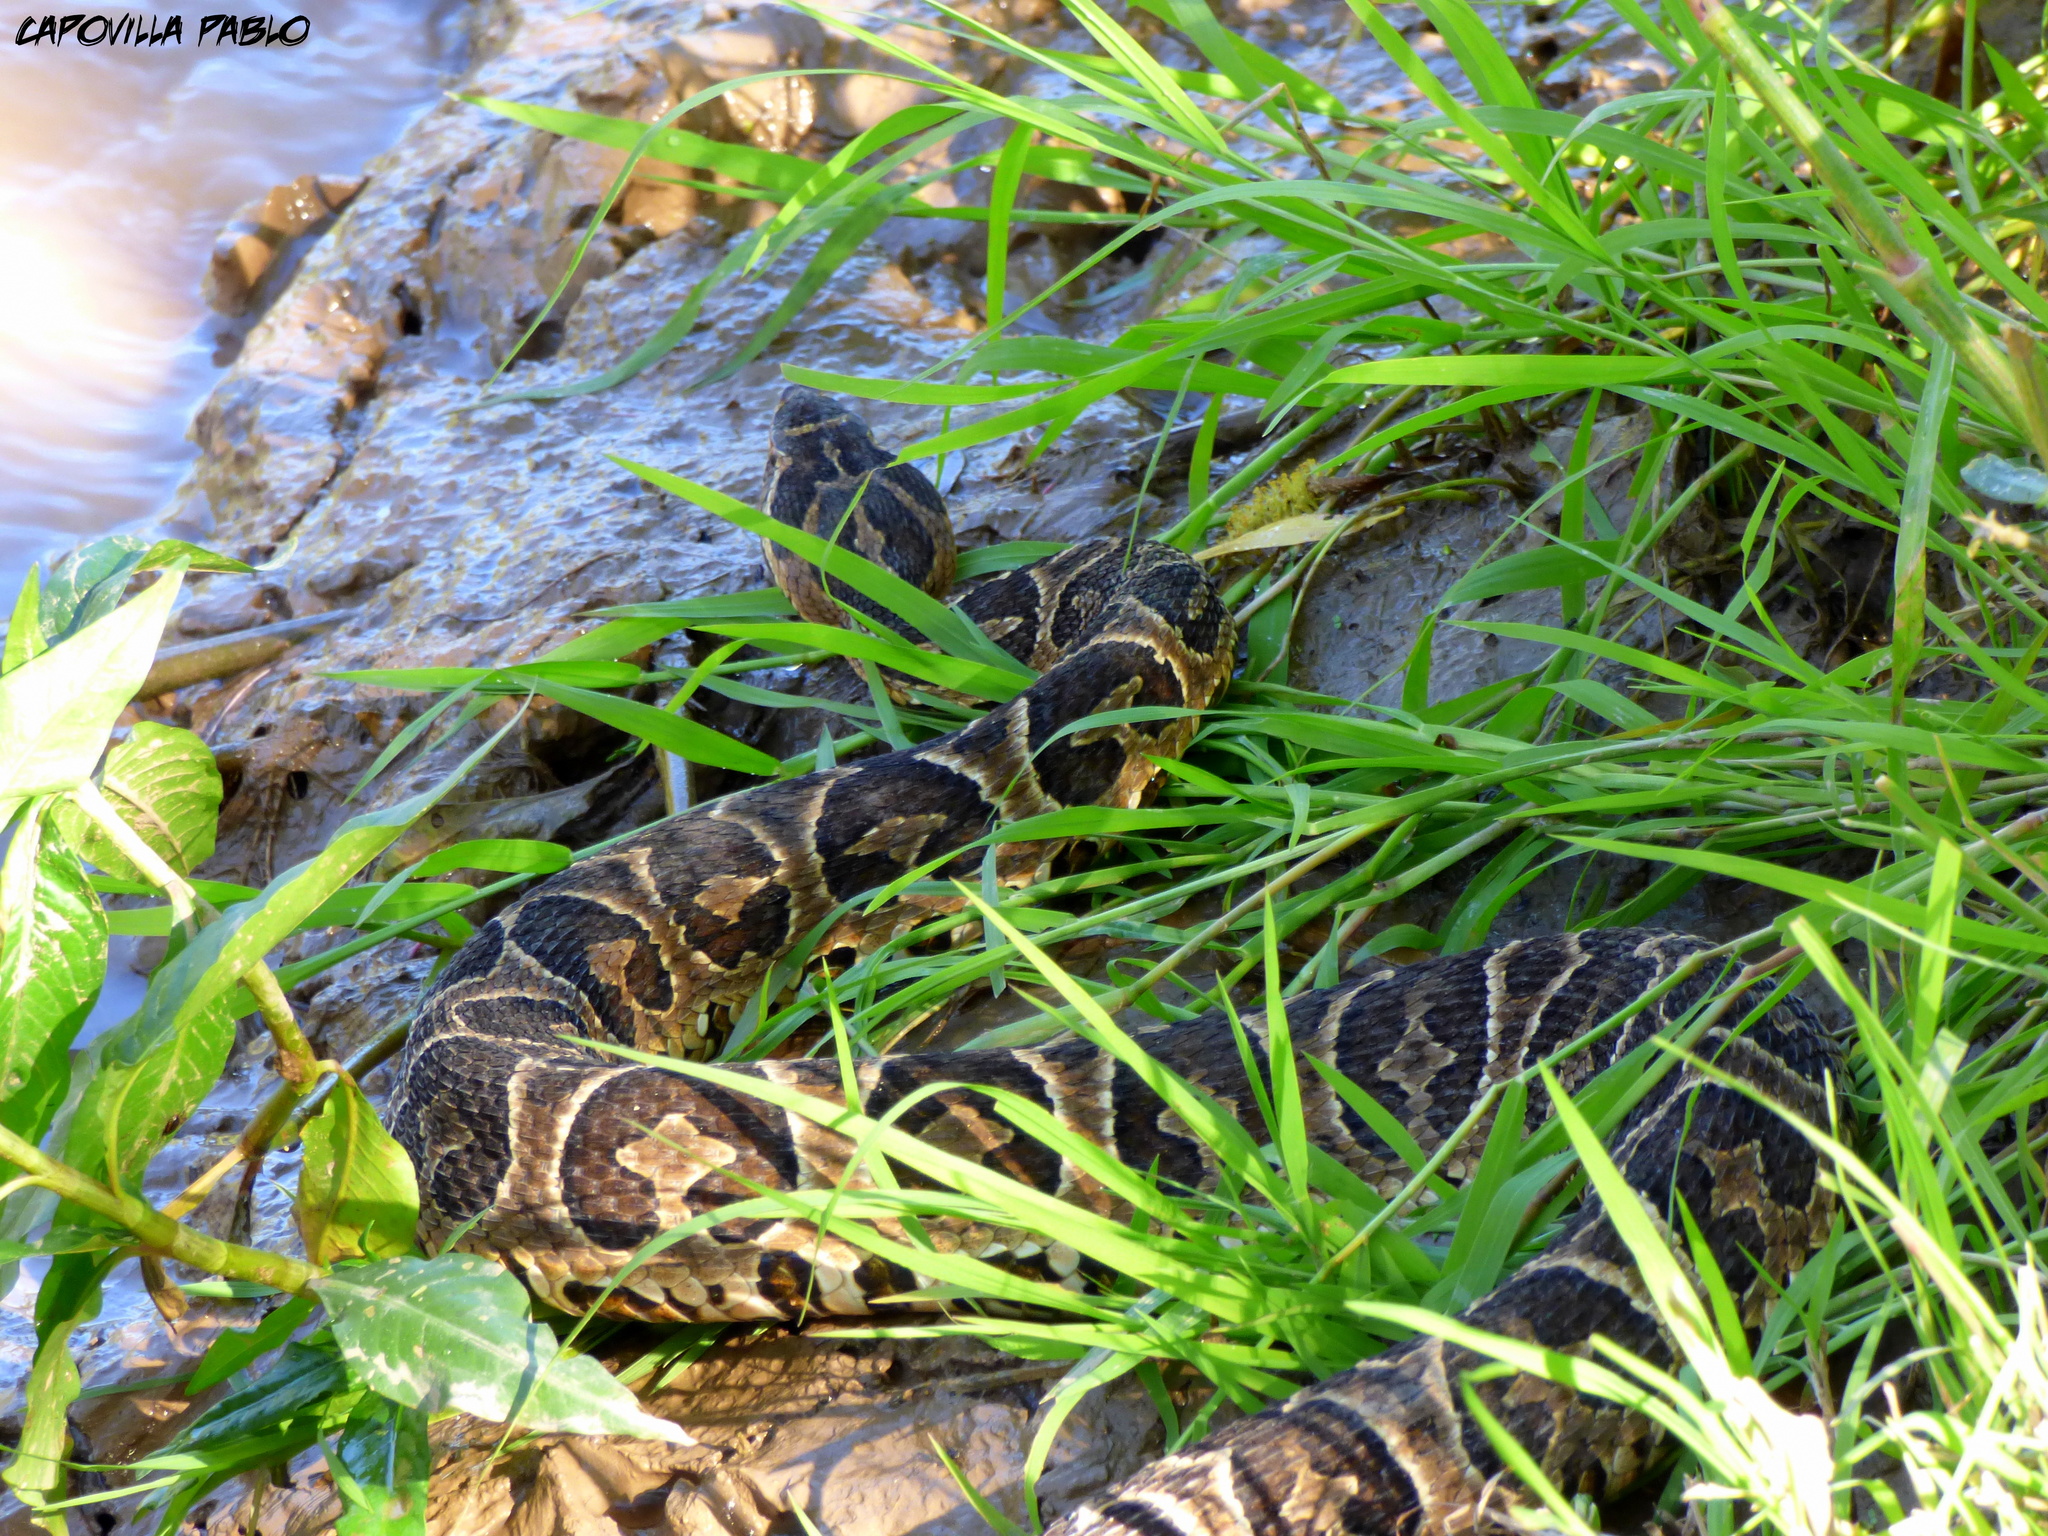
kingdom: Animalia
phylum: Chordata
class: Squamata
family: Viperidae
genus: Bothrops
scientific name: Bothrops alternatus
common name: Urutu
